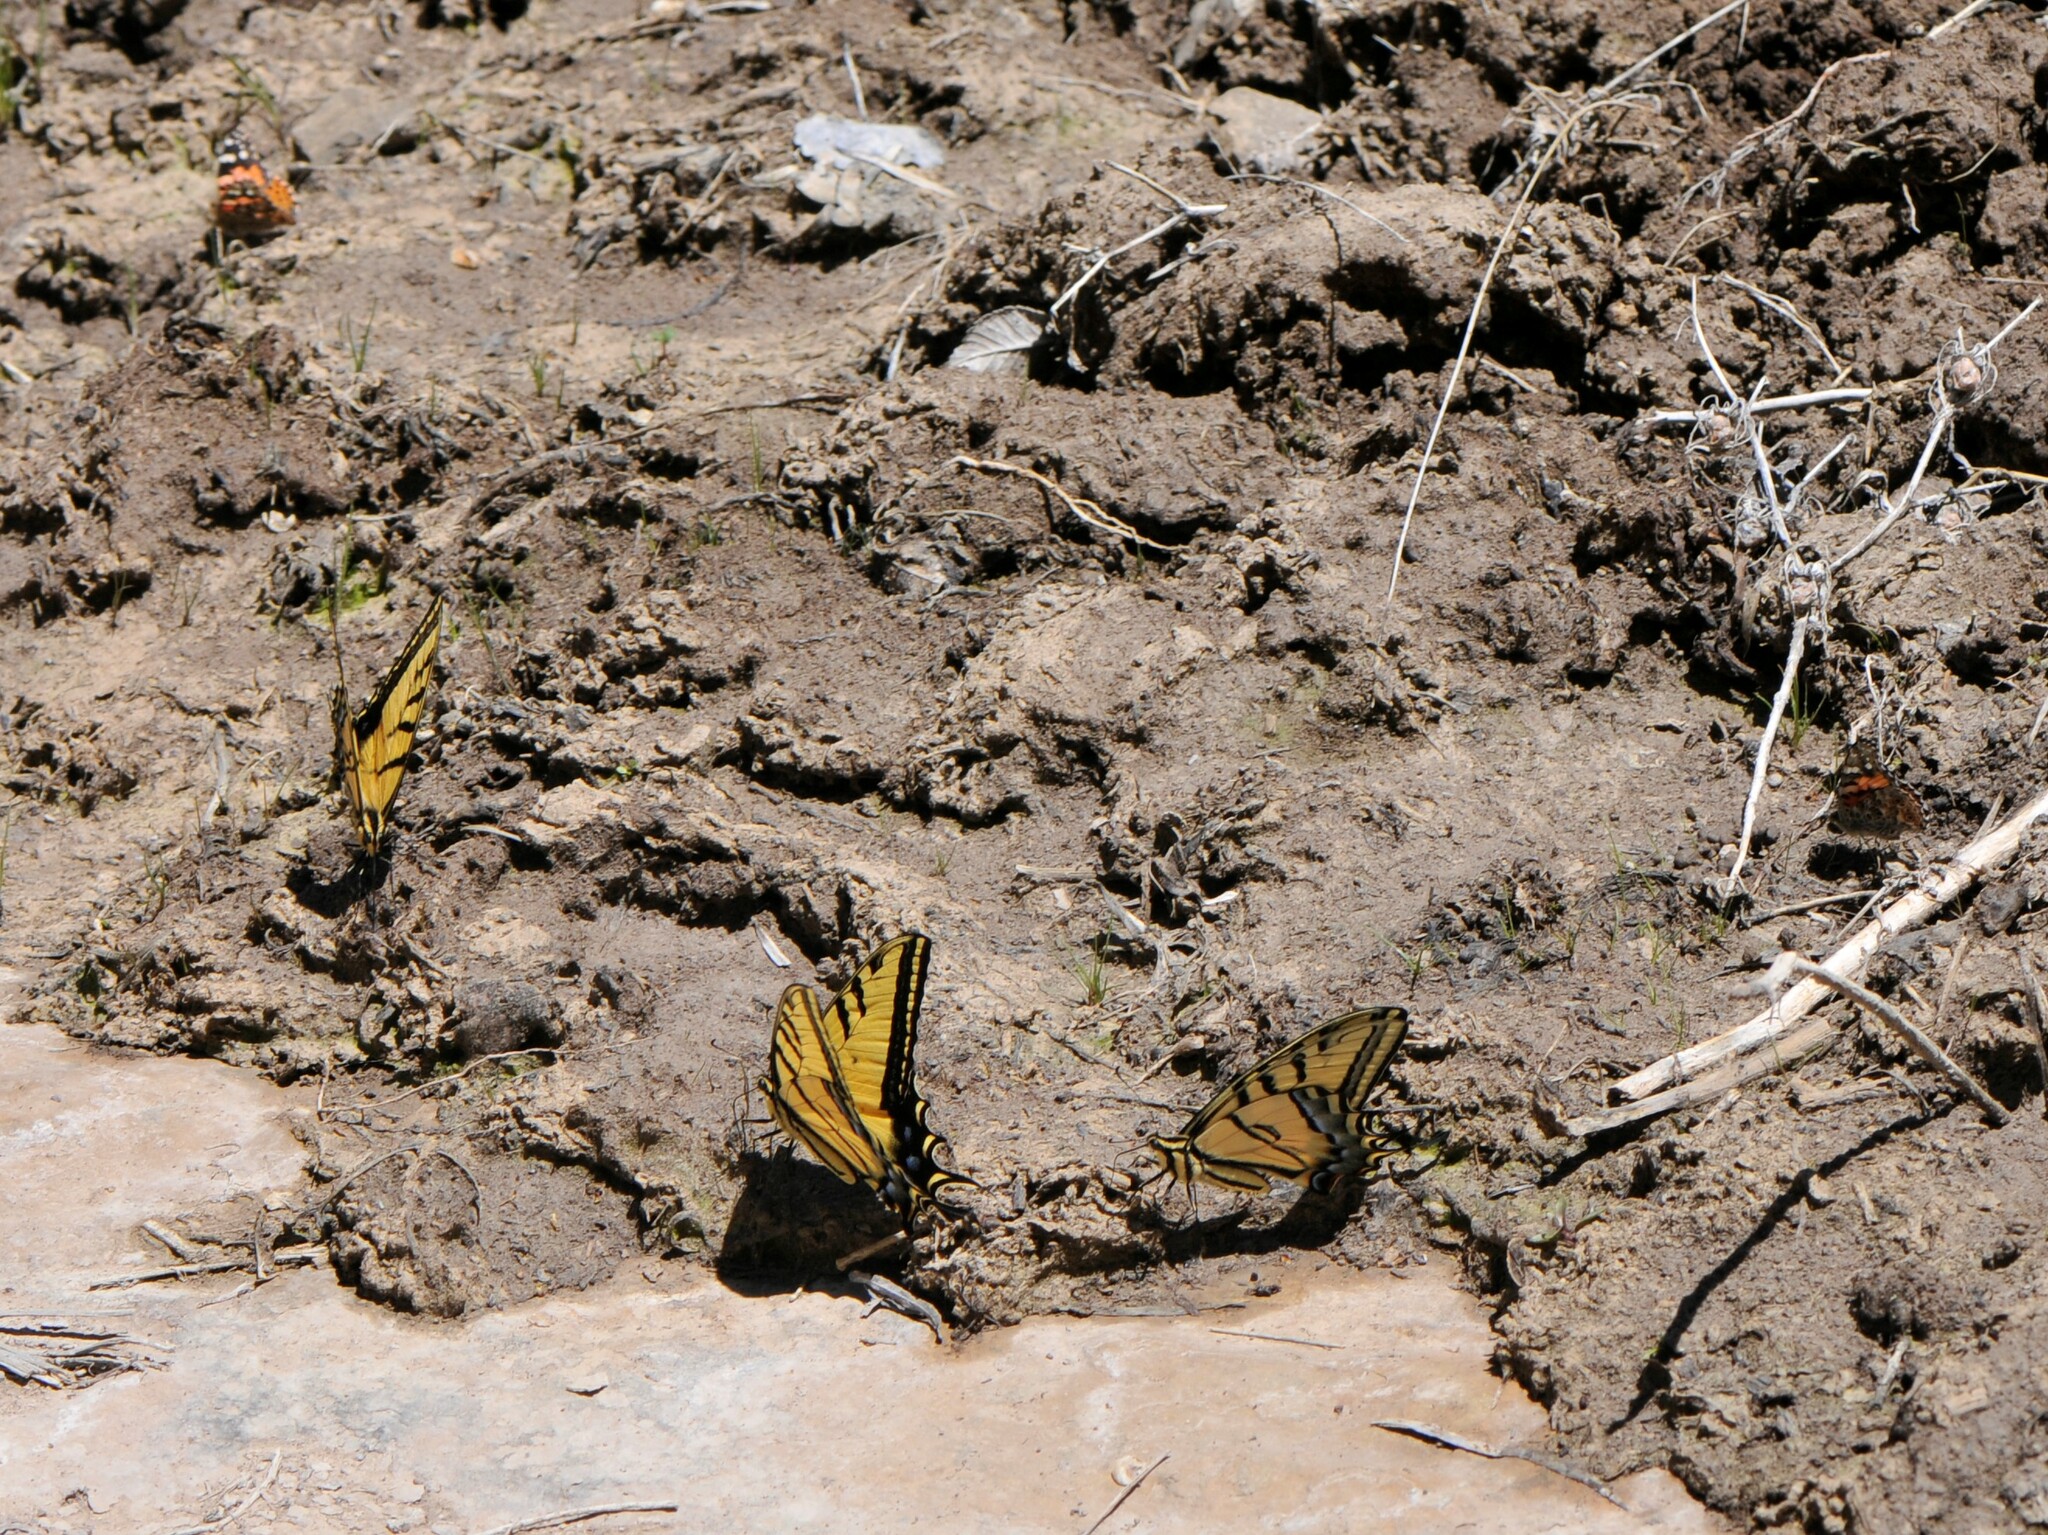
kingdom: Animalia
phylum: Arthropoda
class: Insecta
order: Lepidoptera
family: Papilionidae
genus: Papilio
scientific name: Papilio multicaudata
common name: Two-tailed tiger swallowtail
